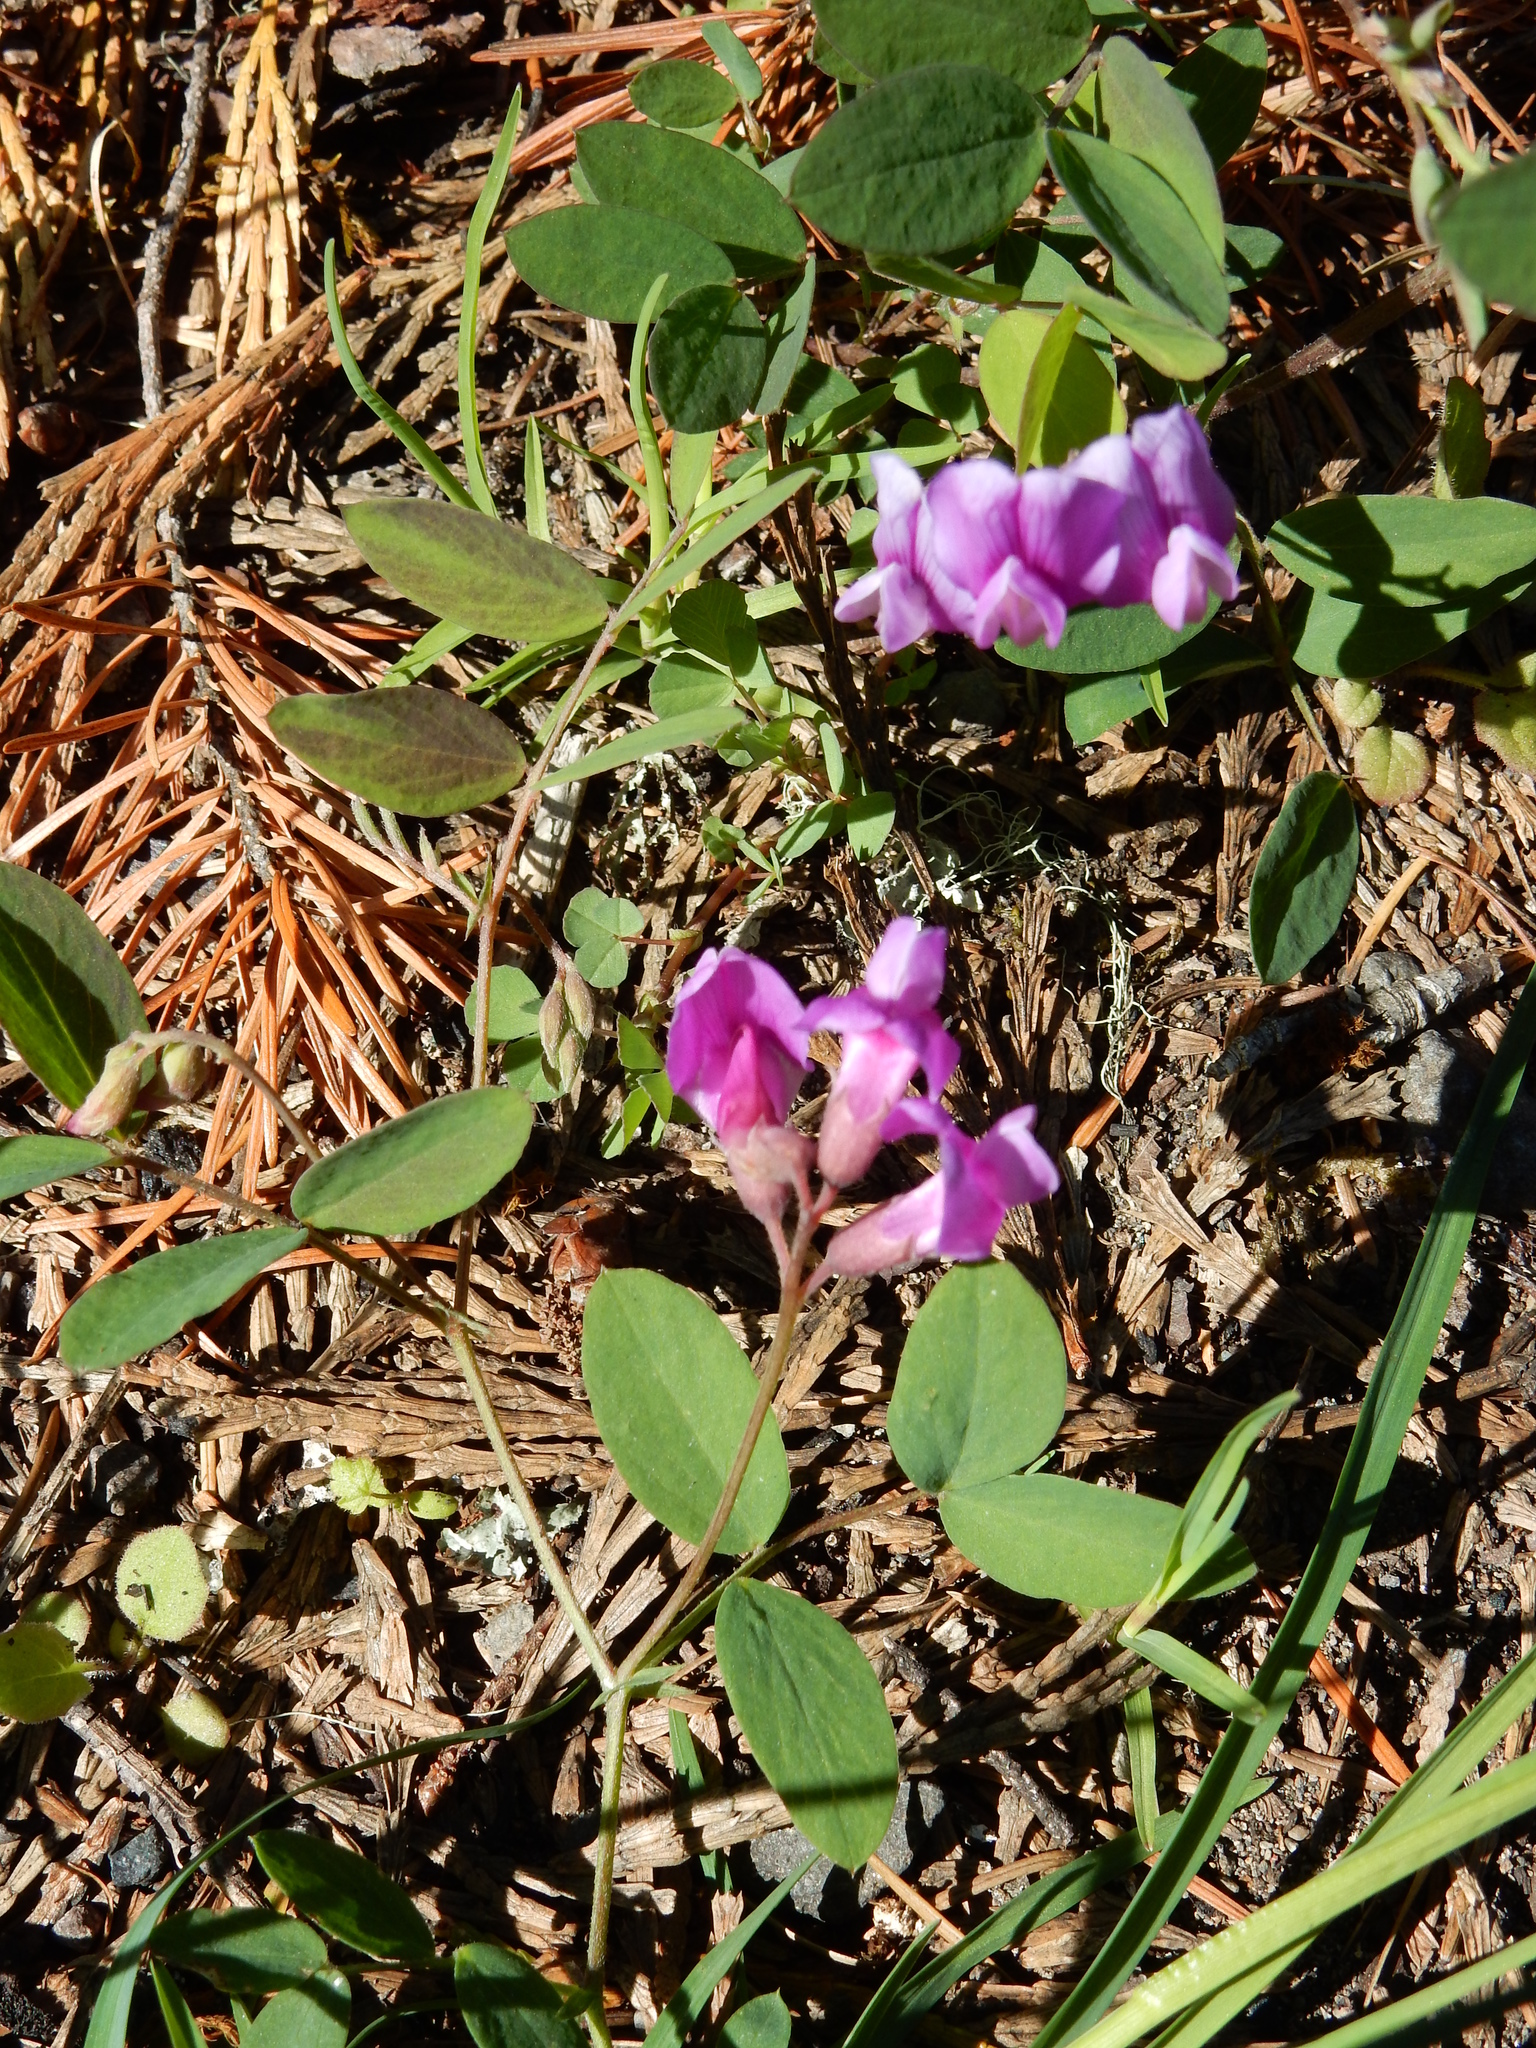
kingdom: Plantae
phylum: Tracheophyta
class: Magnoliopsida
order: Fabales
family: Fabaceae
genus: Lathyrus
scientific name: Lathyrus nevadensis
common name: Sierra nevada peavine
